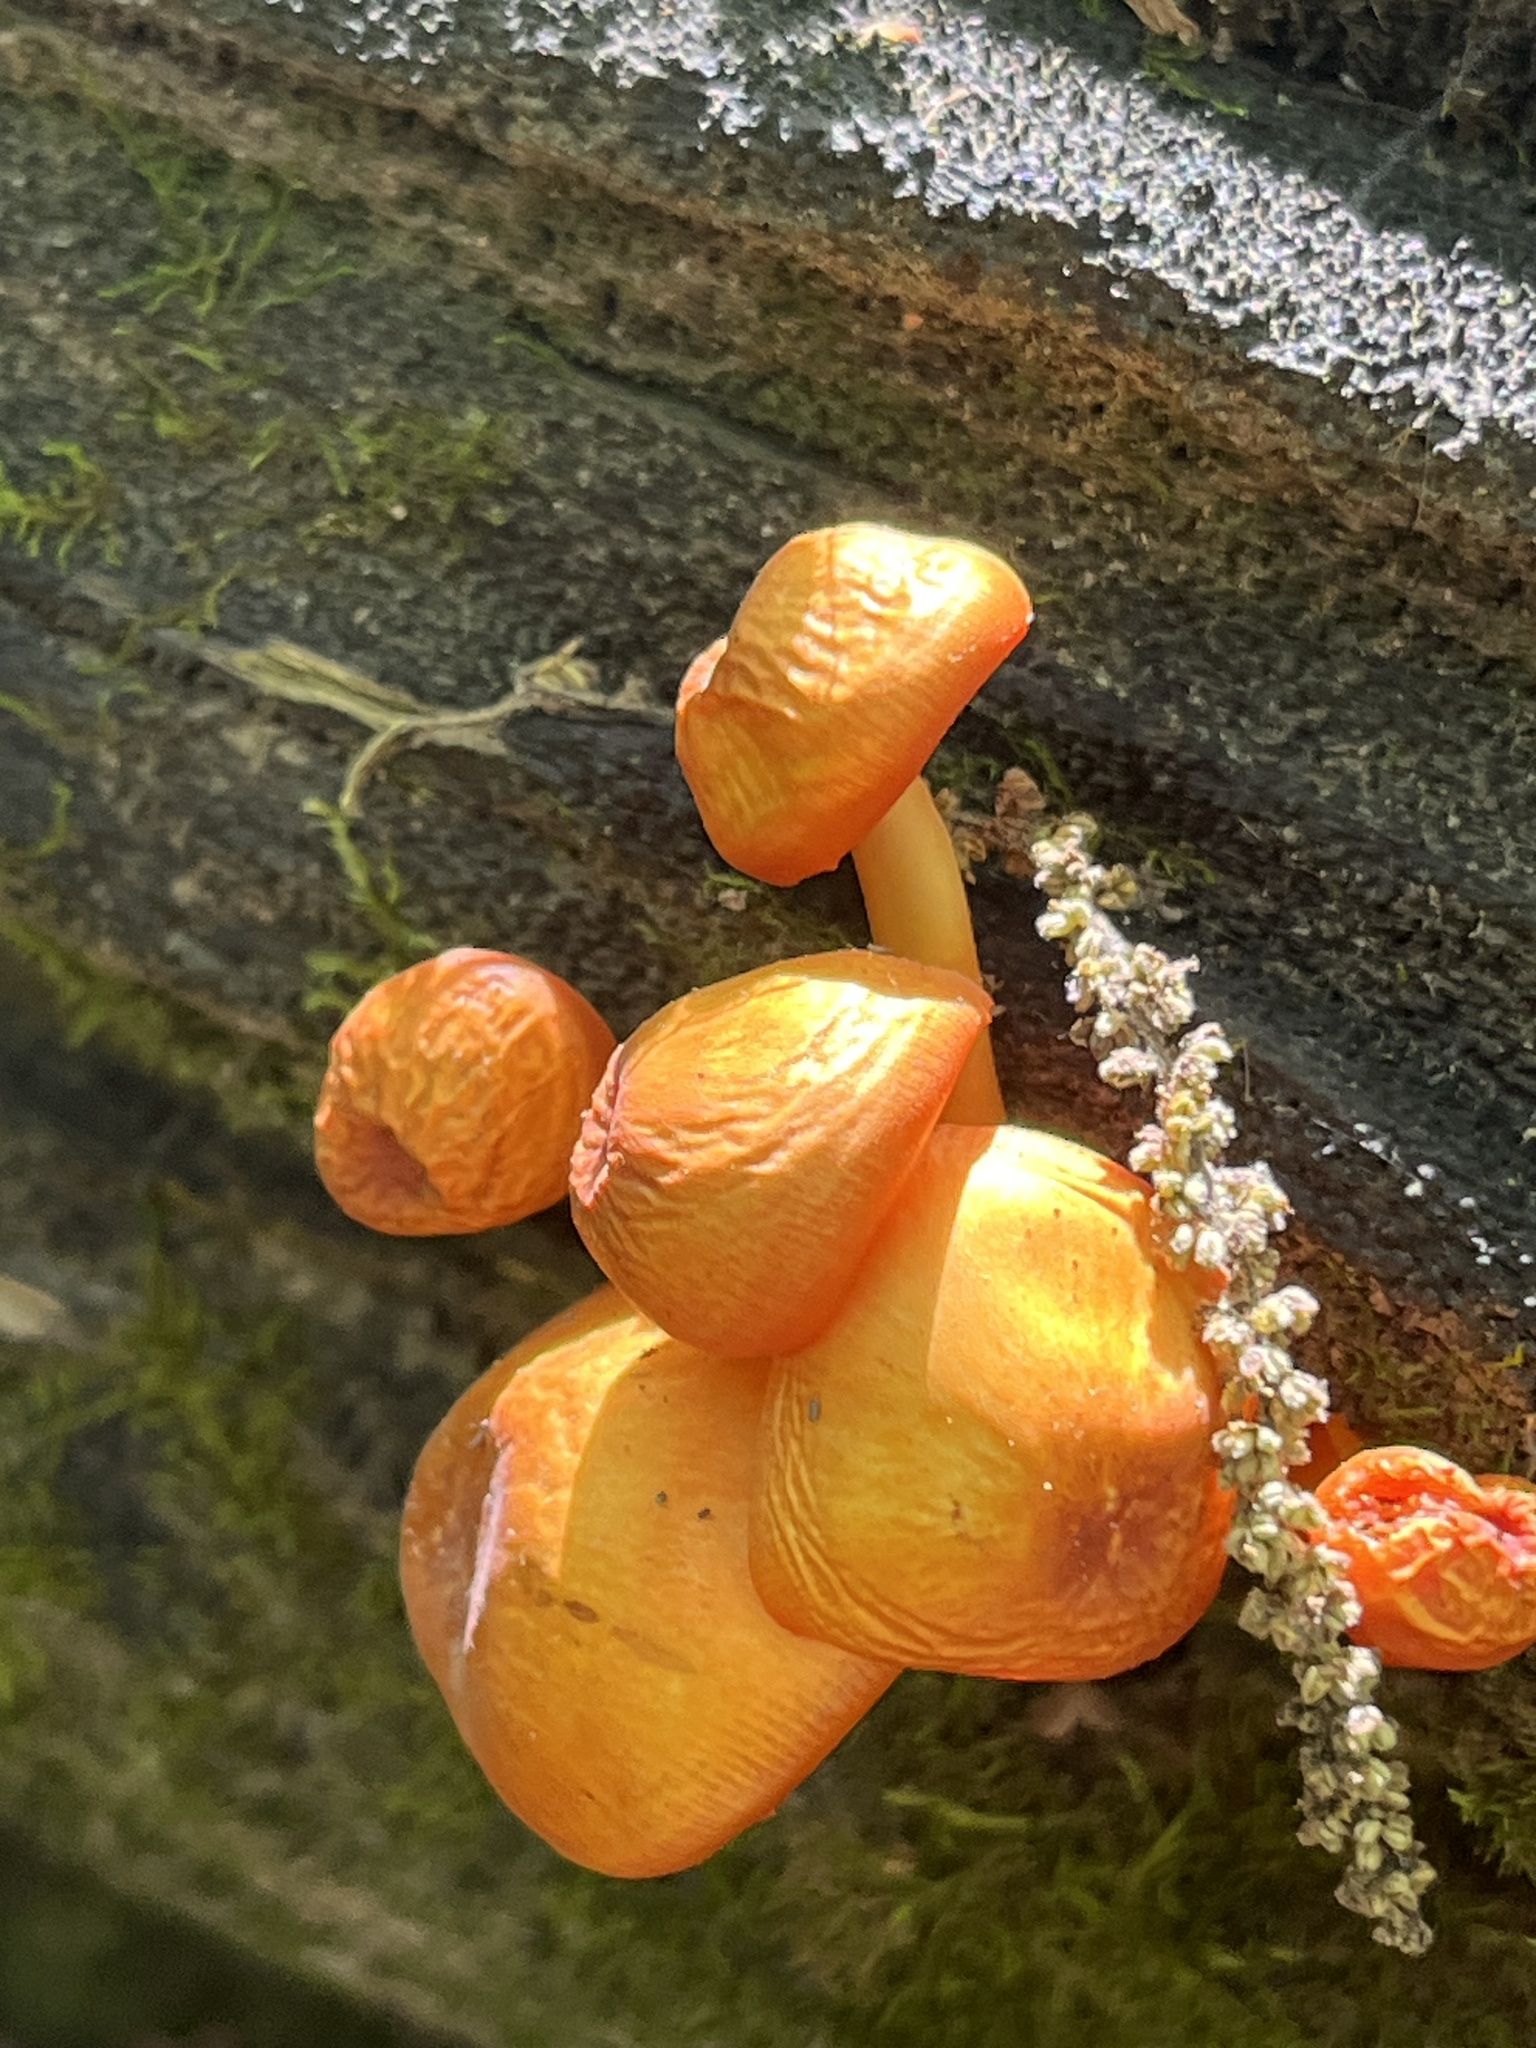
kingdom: Fungi
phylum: Basidiomycota
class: Agaricomycetes
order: Agaricales
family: Mycenaceae
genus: Mycena
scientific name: Mycena leaiana
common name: Orange mycena
